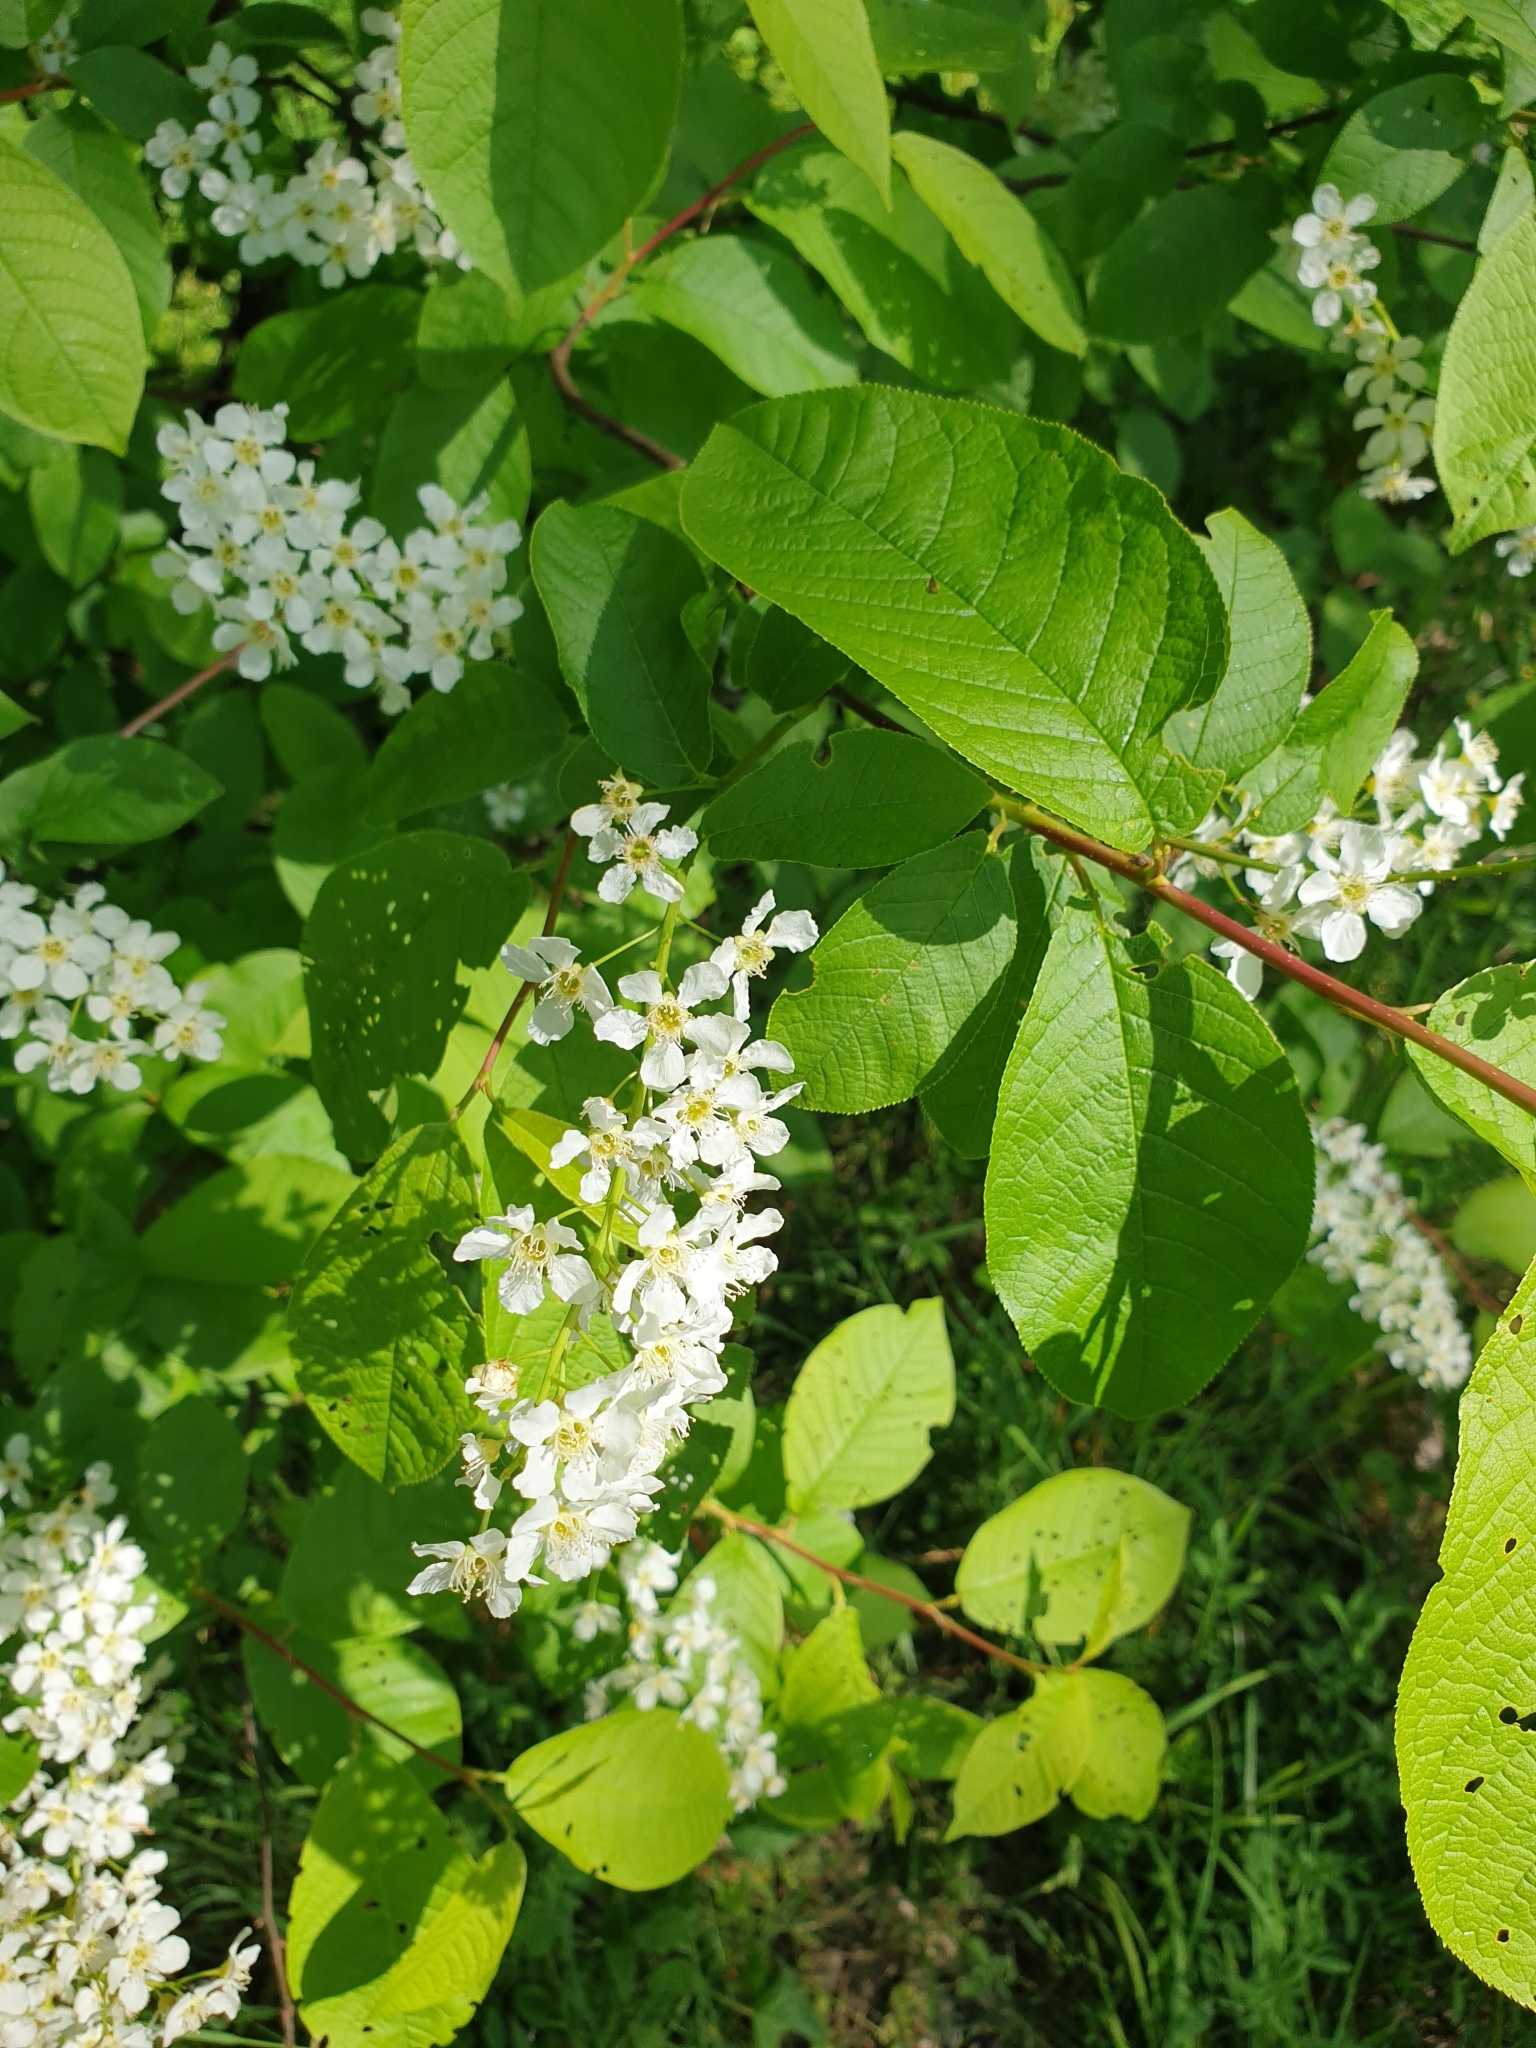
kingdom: Plantae
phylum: Tracheophyta
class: Magnoliopsida
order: Rosales
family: Rosaceae
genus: Prunus
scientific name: Prunus padus
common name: Bird cherry
